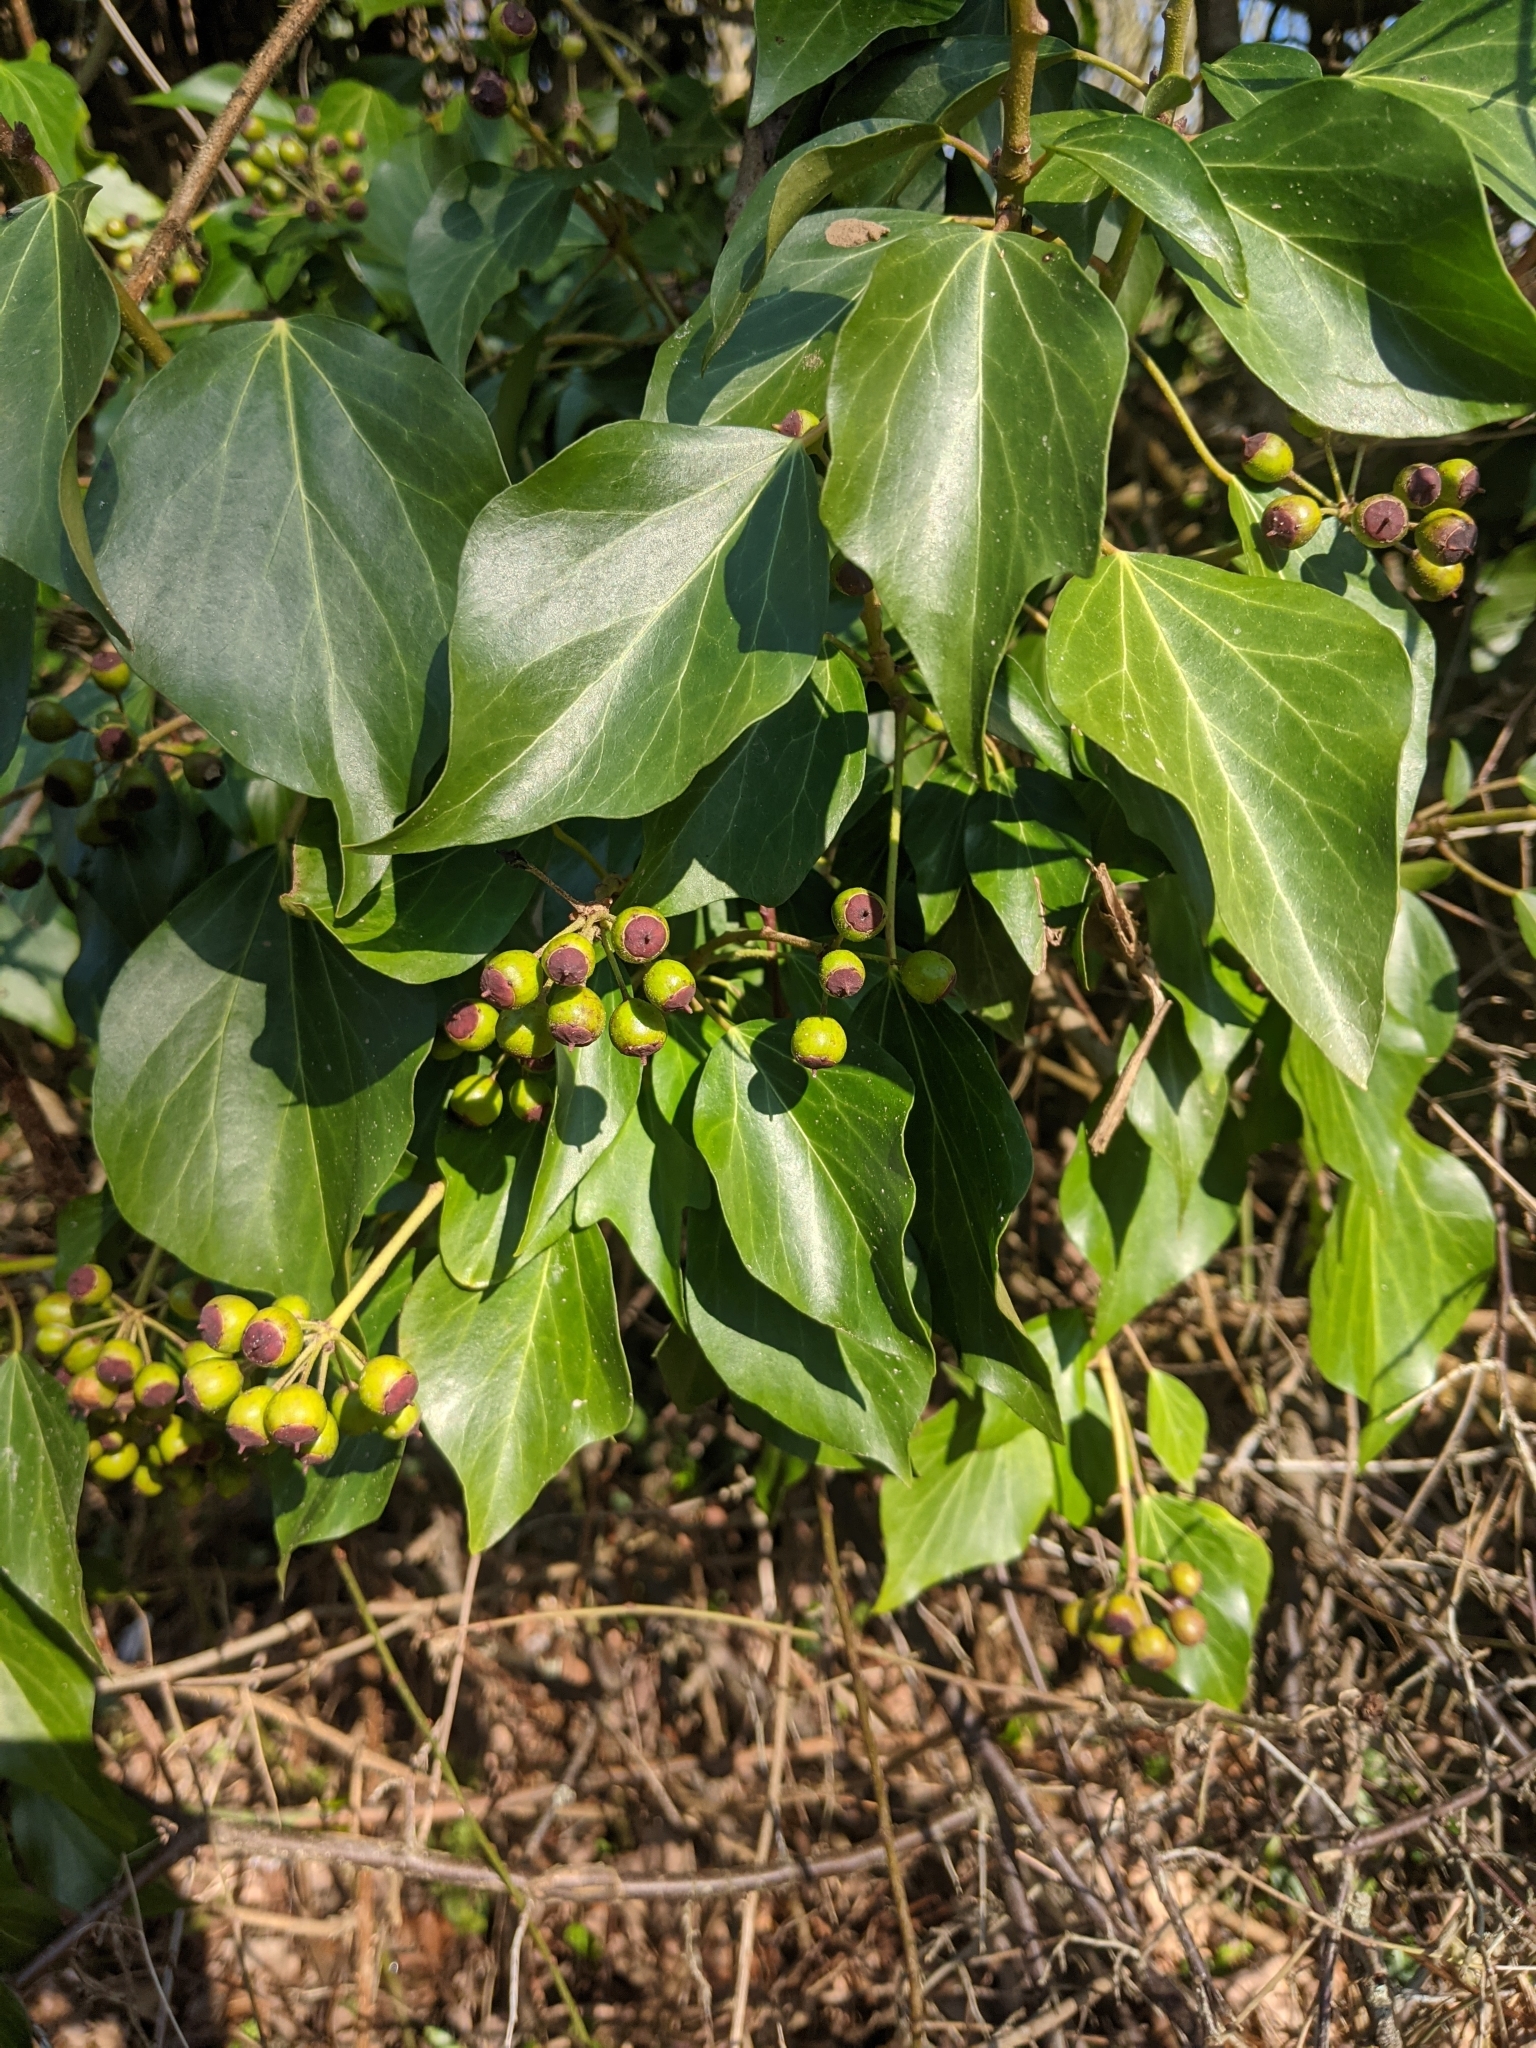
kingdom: Plantae
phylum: Tracheophyta
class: Magnoliopsida
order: Apiales
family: Araliaceae
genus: Hedera
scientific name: Hedera helix
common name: Ivy
